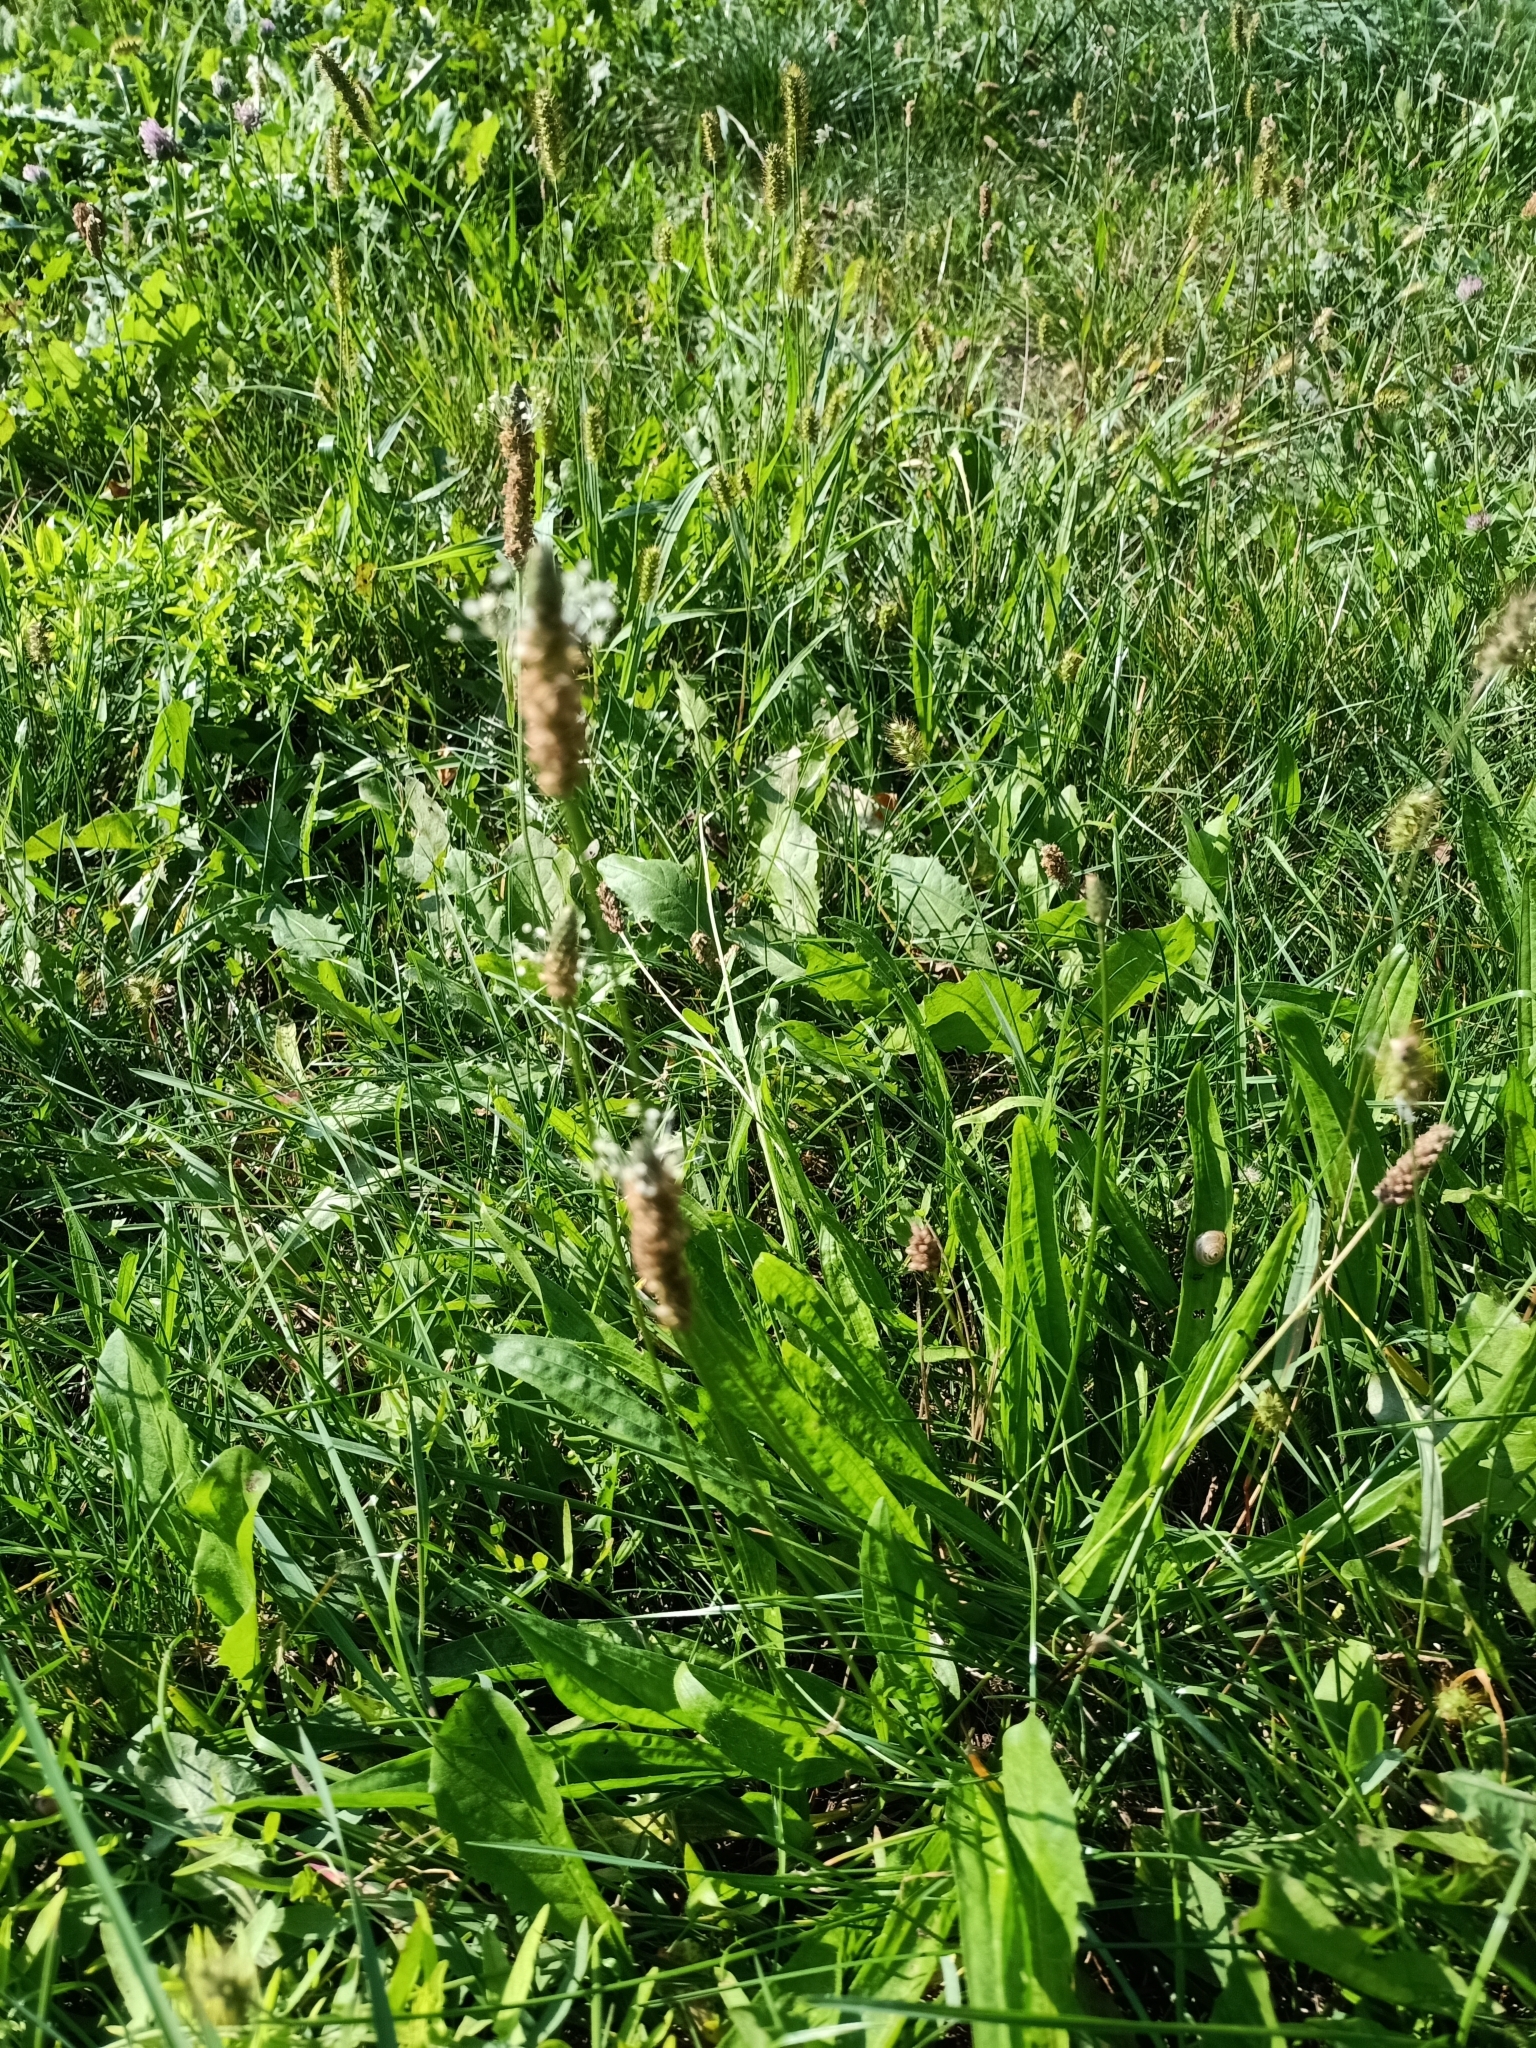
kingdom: Plantae
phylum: Tracheophyta
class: Magnoliopsida
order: Lamiales
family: Plantaginaceae
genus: Plantago
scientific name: Plantago lanceolata
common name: Ribwort plantain
